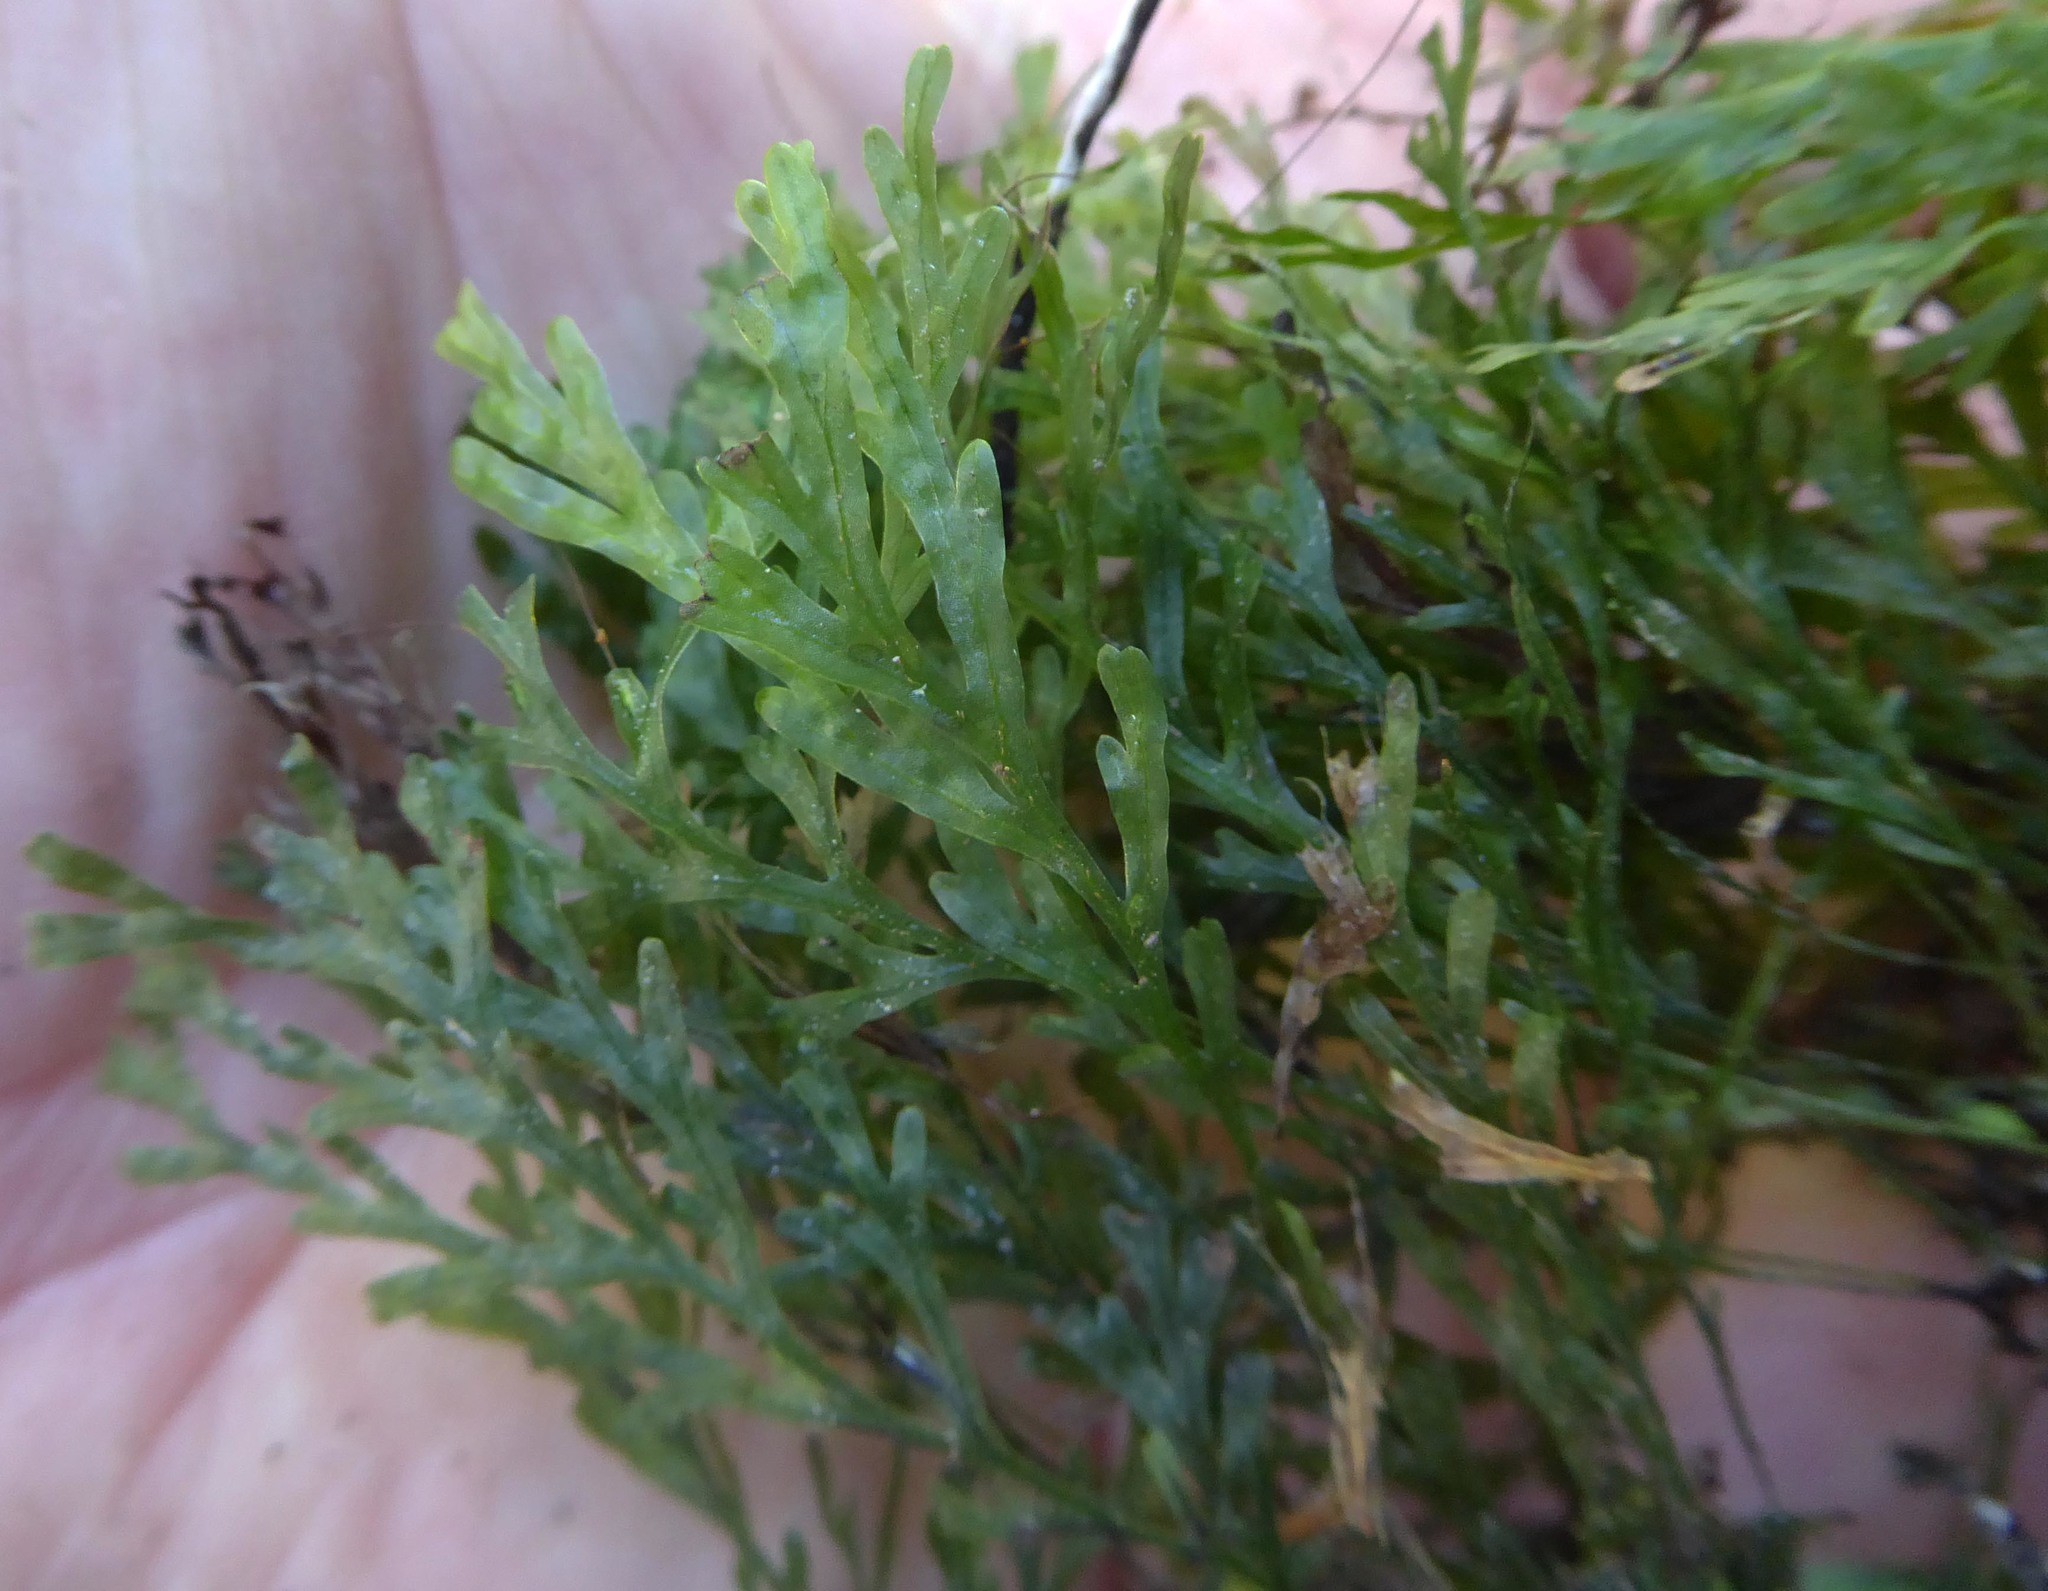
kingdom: Plantae
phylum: Tracheophyta
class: Polypodiopsida
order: Hymenophyllales
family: Hymenophyllaceae
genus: Polyphlebium
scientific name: Polyphlebium endlicherianum
